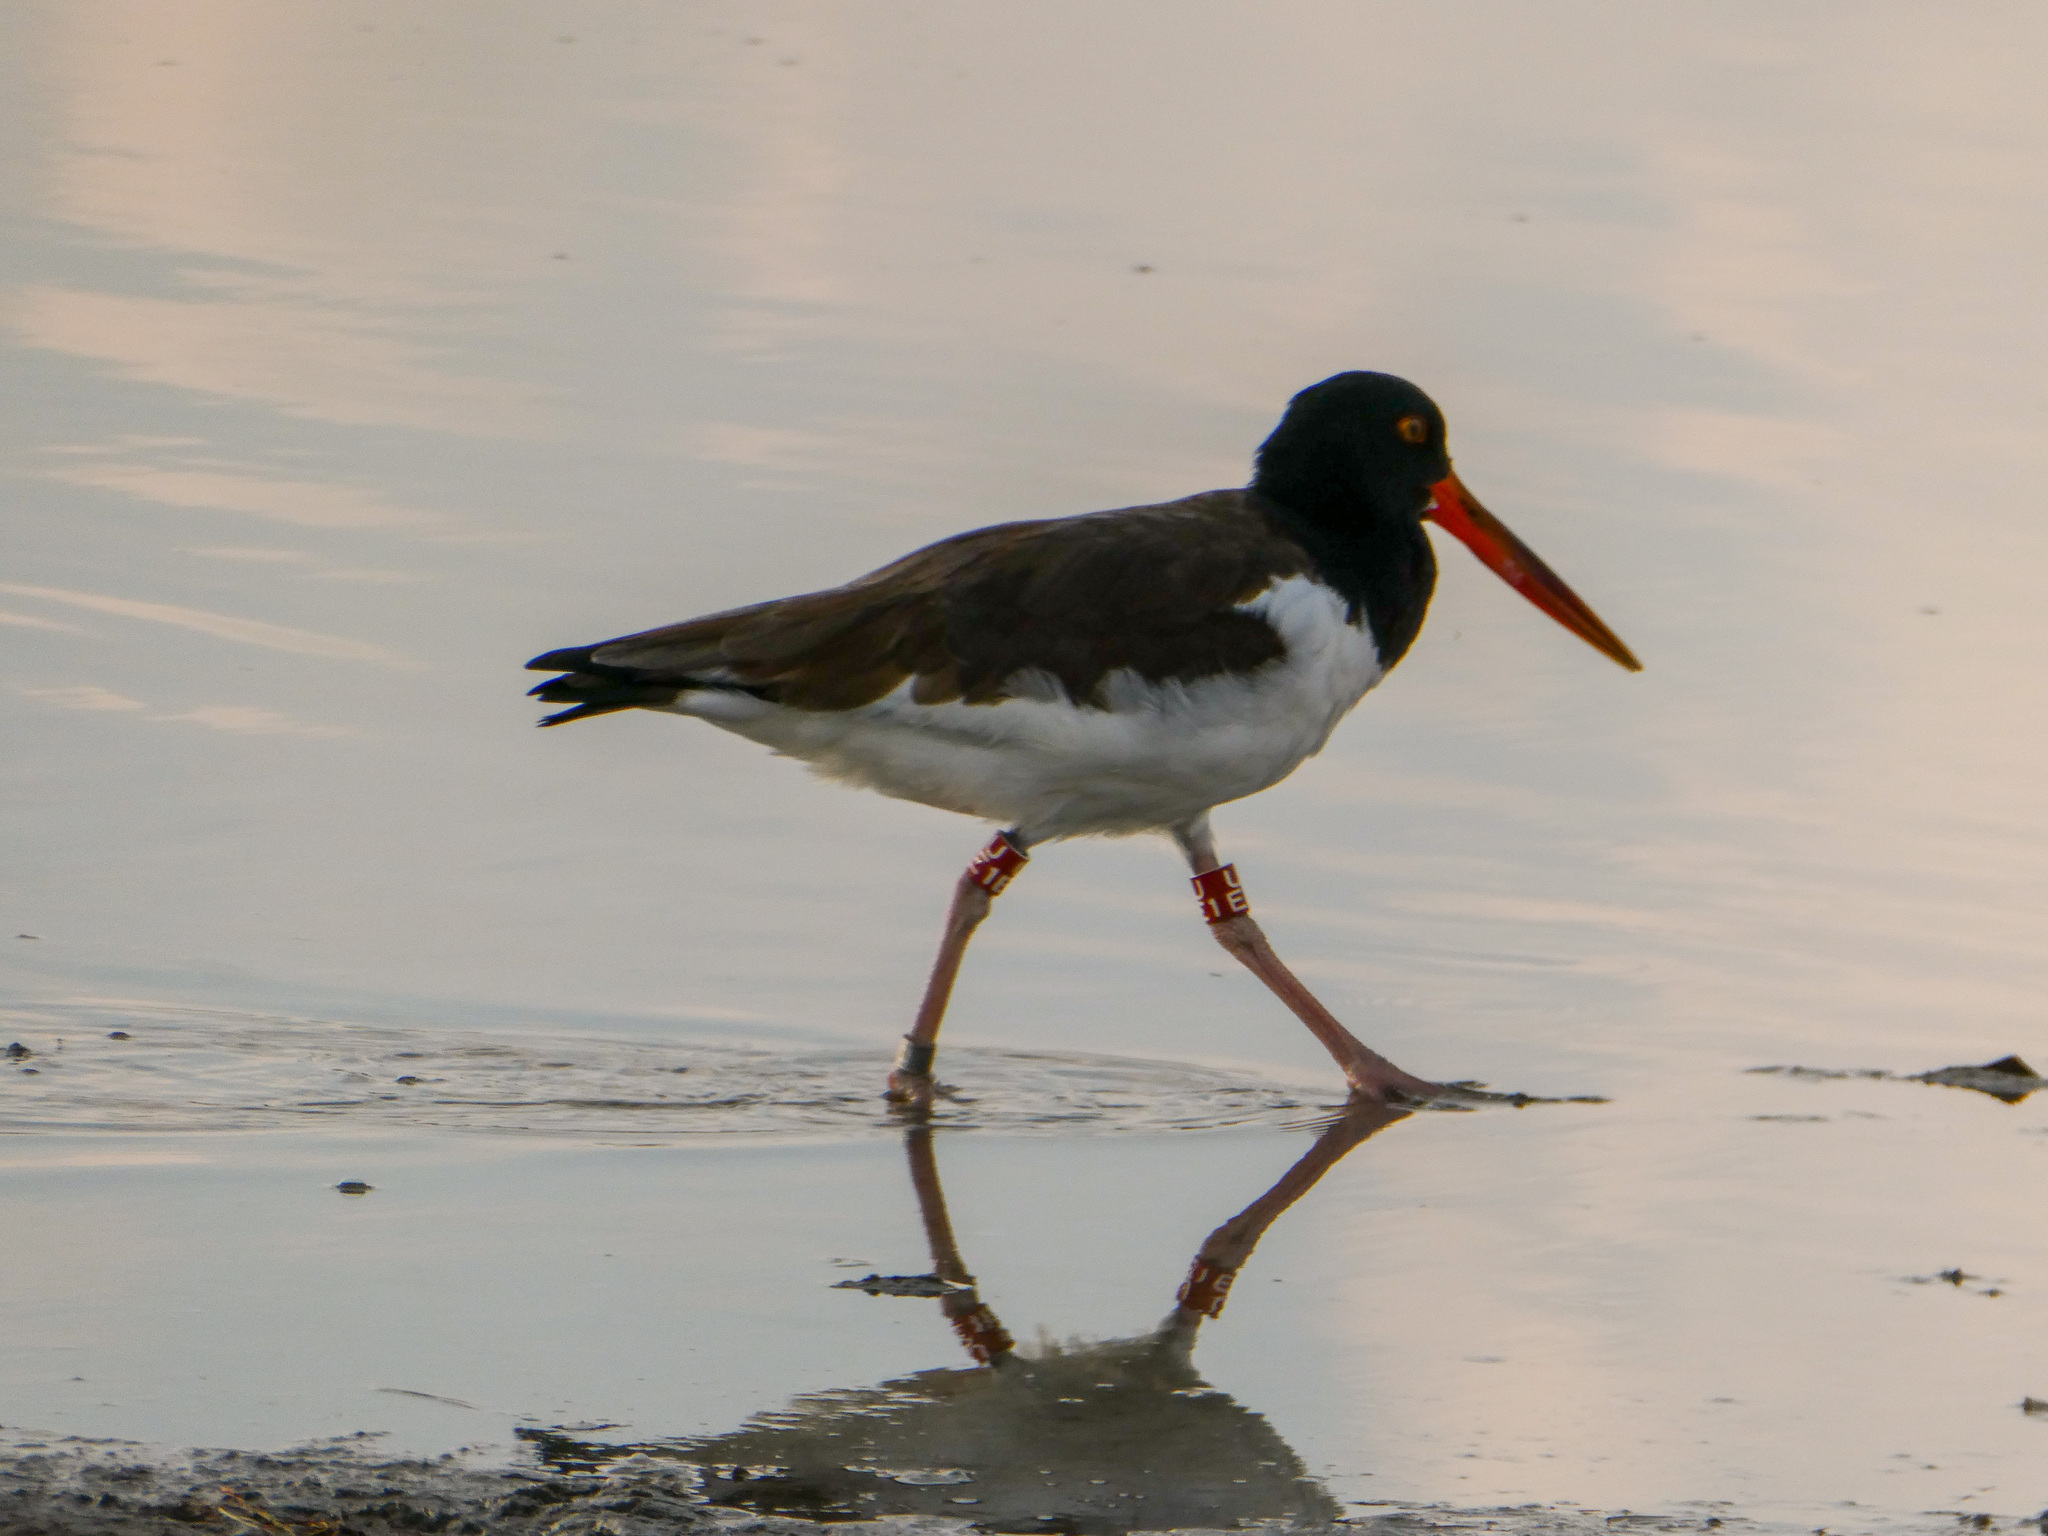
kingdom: Animalia
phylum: Chordata
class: Aves
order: Charadriiformes
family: Haematopodidae
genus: Haematopus
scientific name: Haematopus palliatus
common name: American oystercatcher
